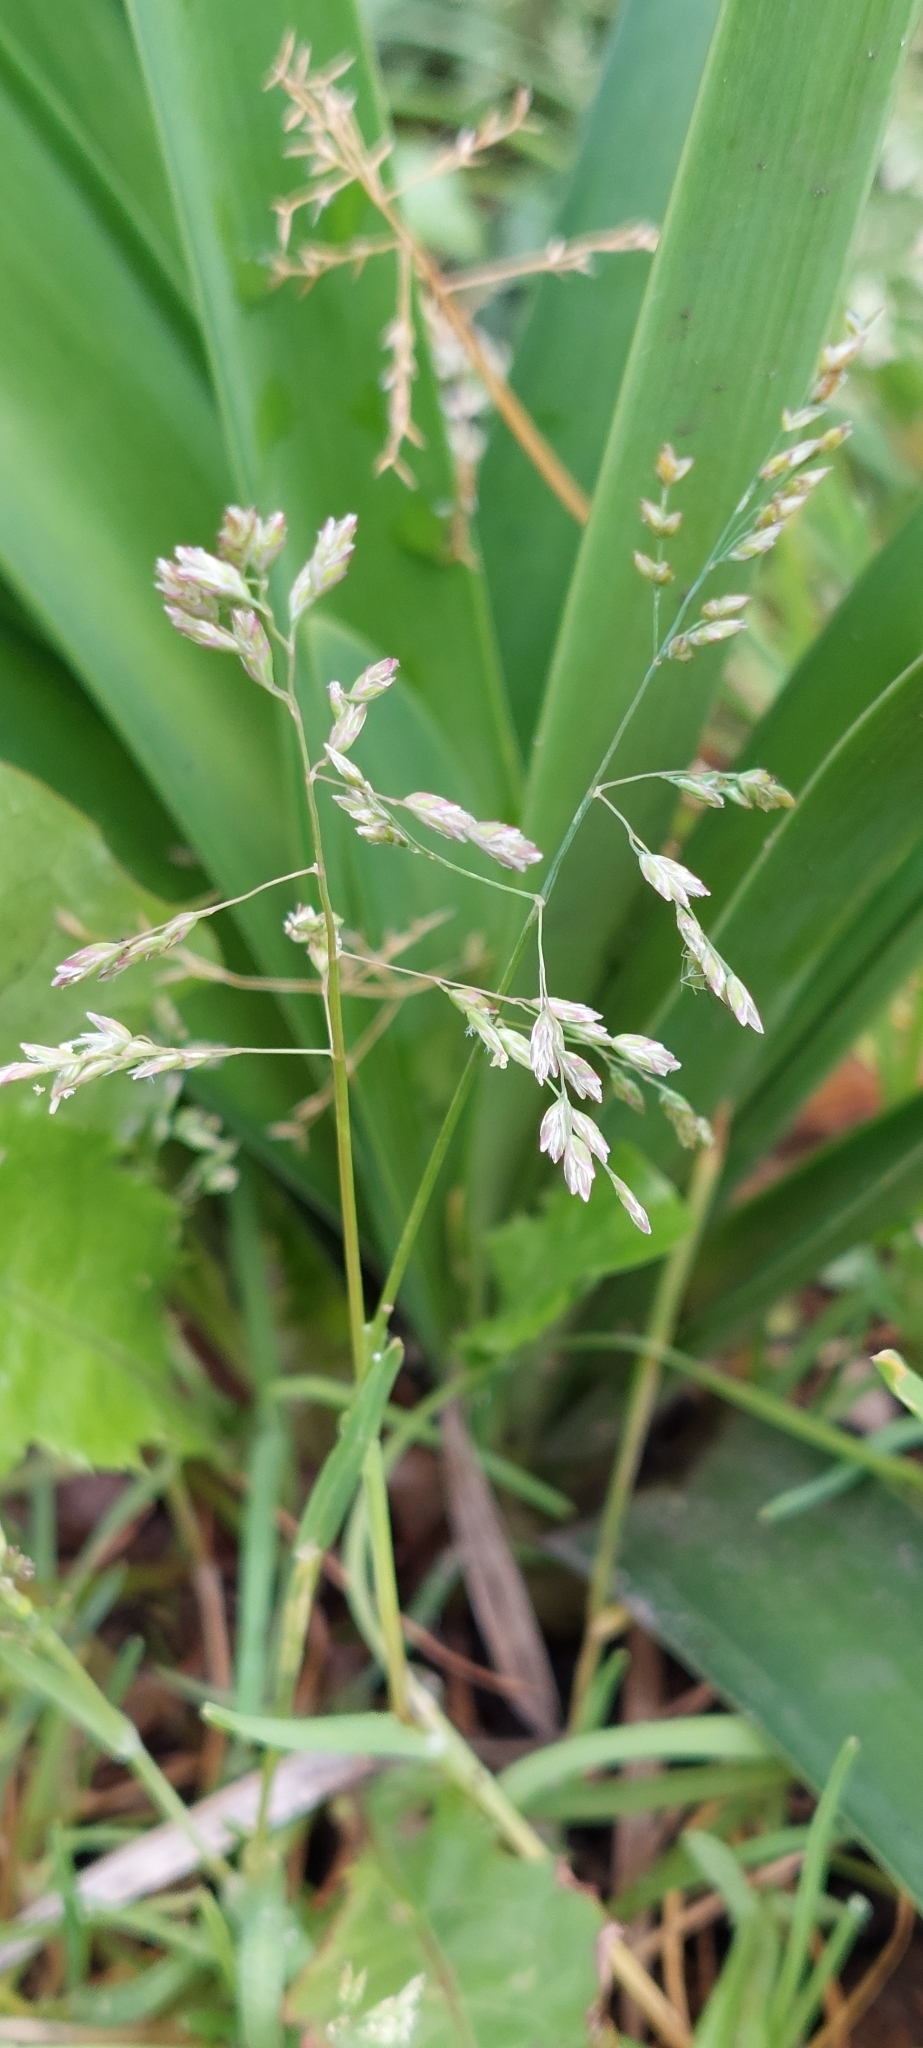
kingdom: Plantae
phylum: Tracheophyta
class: Liliopsida
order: Poales
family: Poaceae
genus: Poa
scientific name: Poa annua
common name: Annual bluegrass
